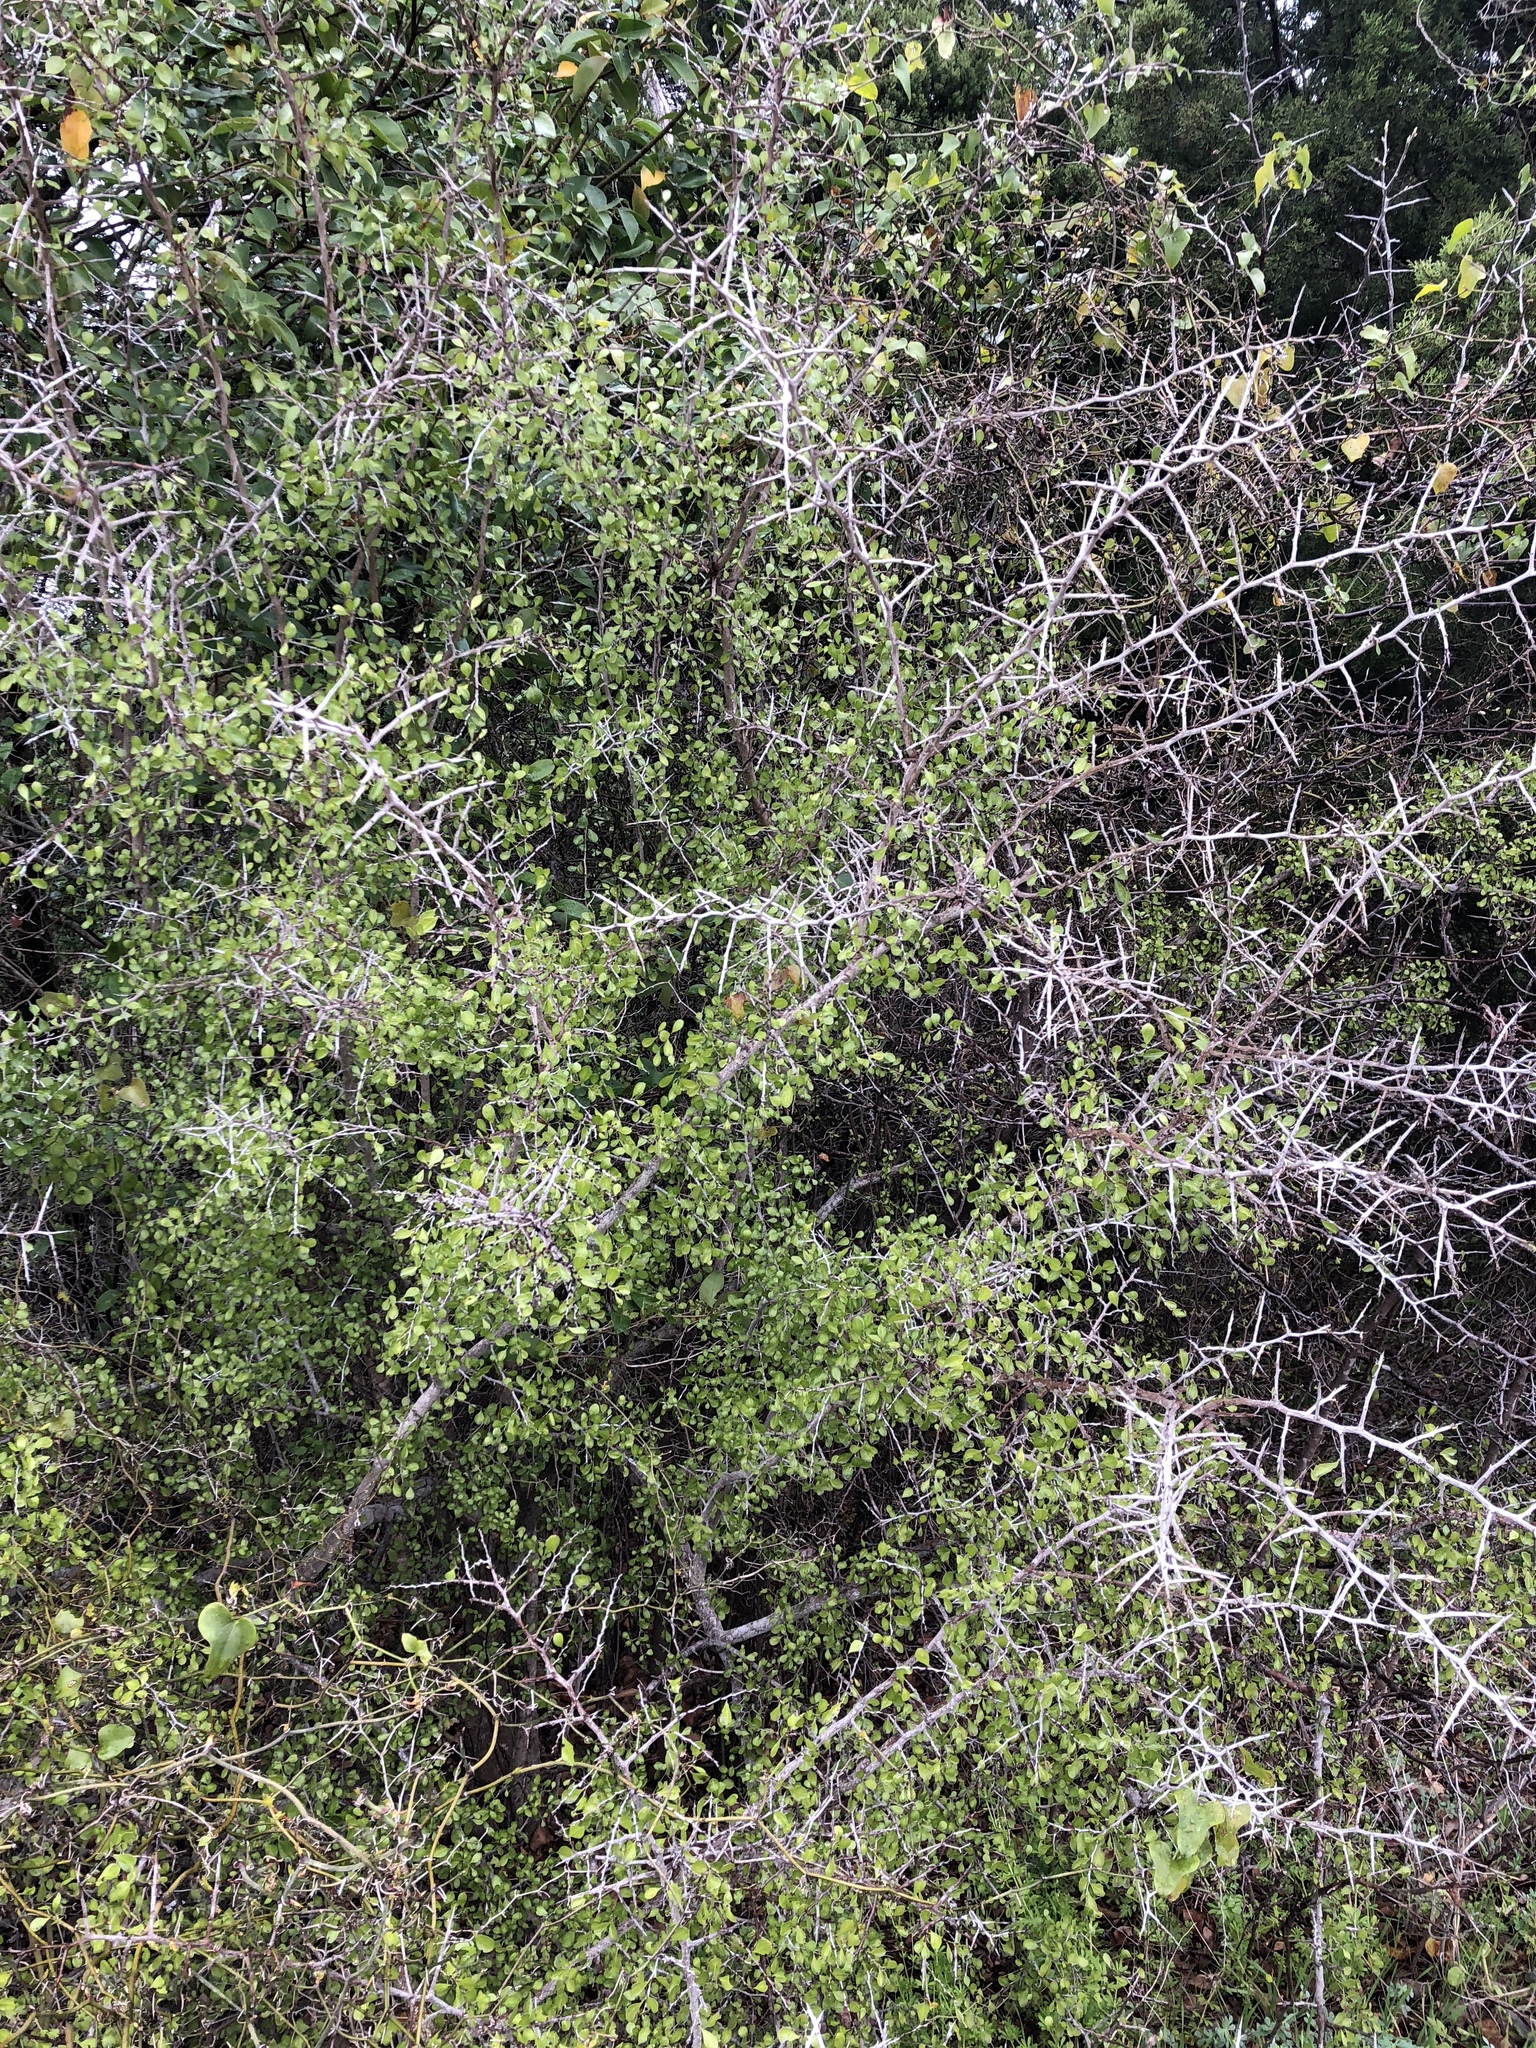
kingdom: Plantae
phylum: Tracheophyta
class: Magnoliopsida
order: Rosales
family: Rhamnaceae
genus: Condalia
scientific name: Condalia hookeri
